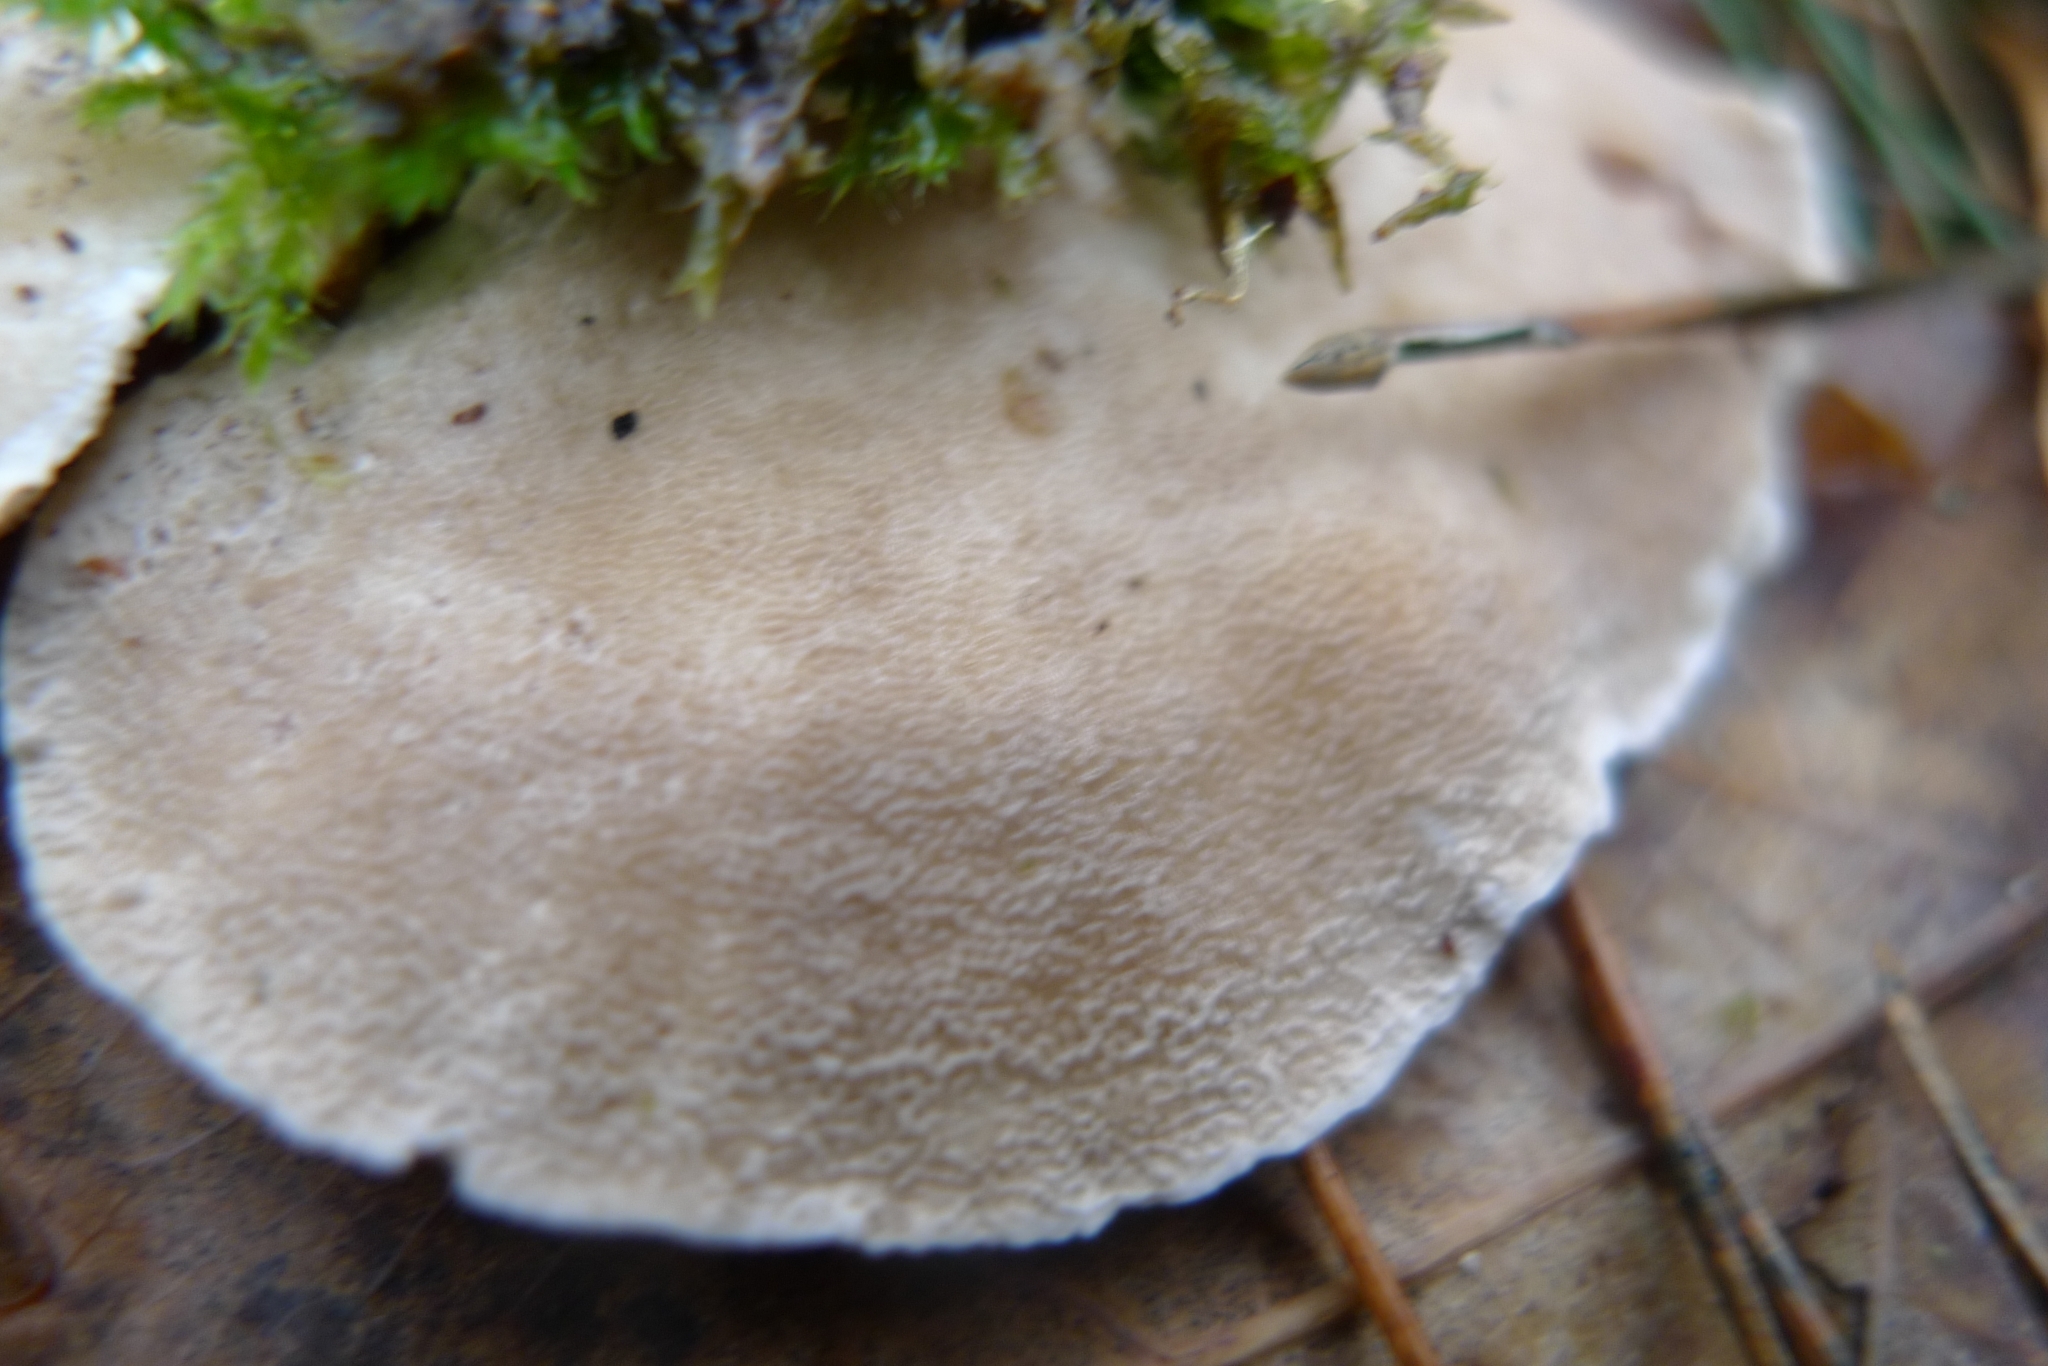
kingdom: Fungi
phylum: Basidiomycota
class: Agaricomycetes
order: Polyporales
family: Polyporaceae
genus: Trametes
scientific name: Trametes versicolor
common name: Turkeytail
